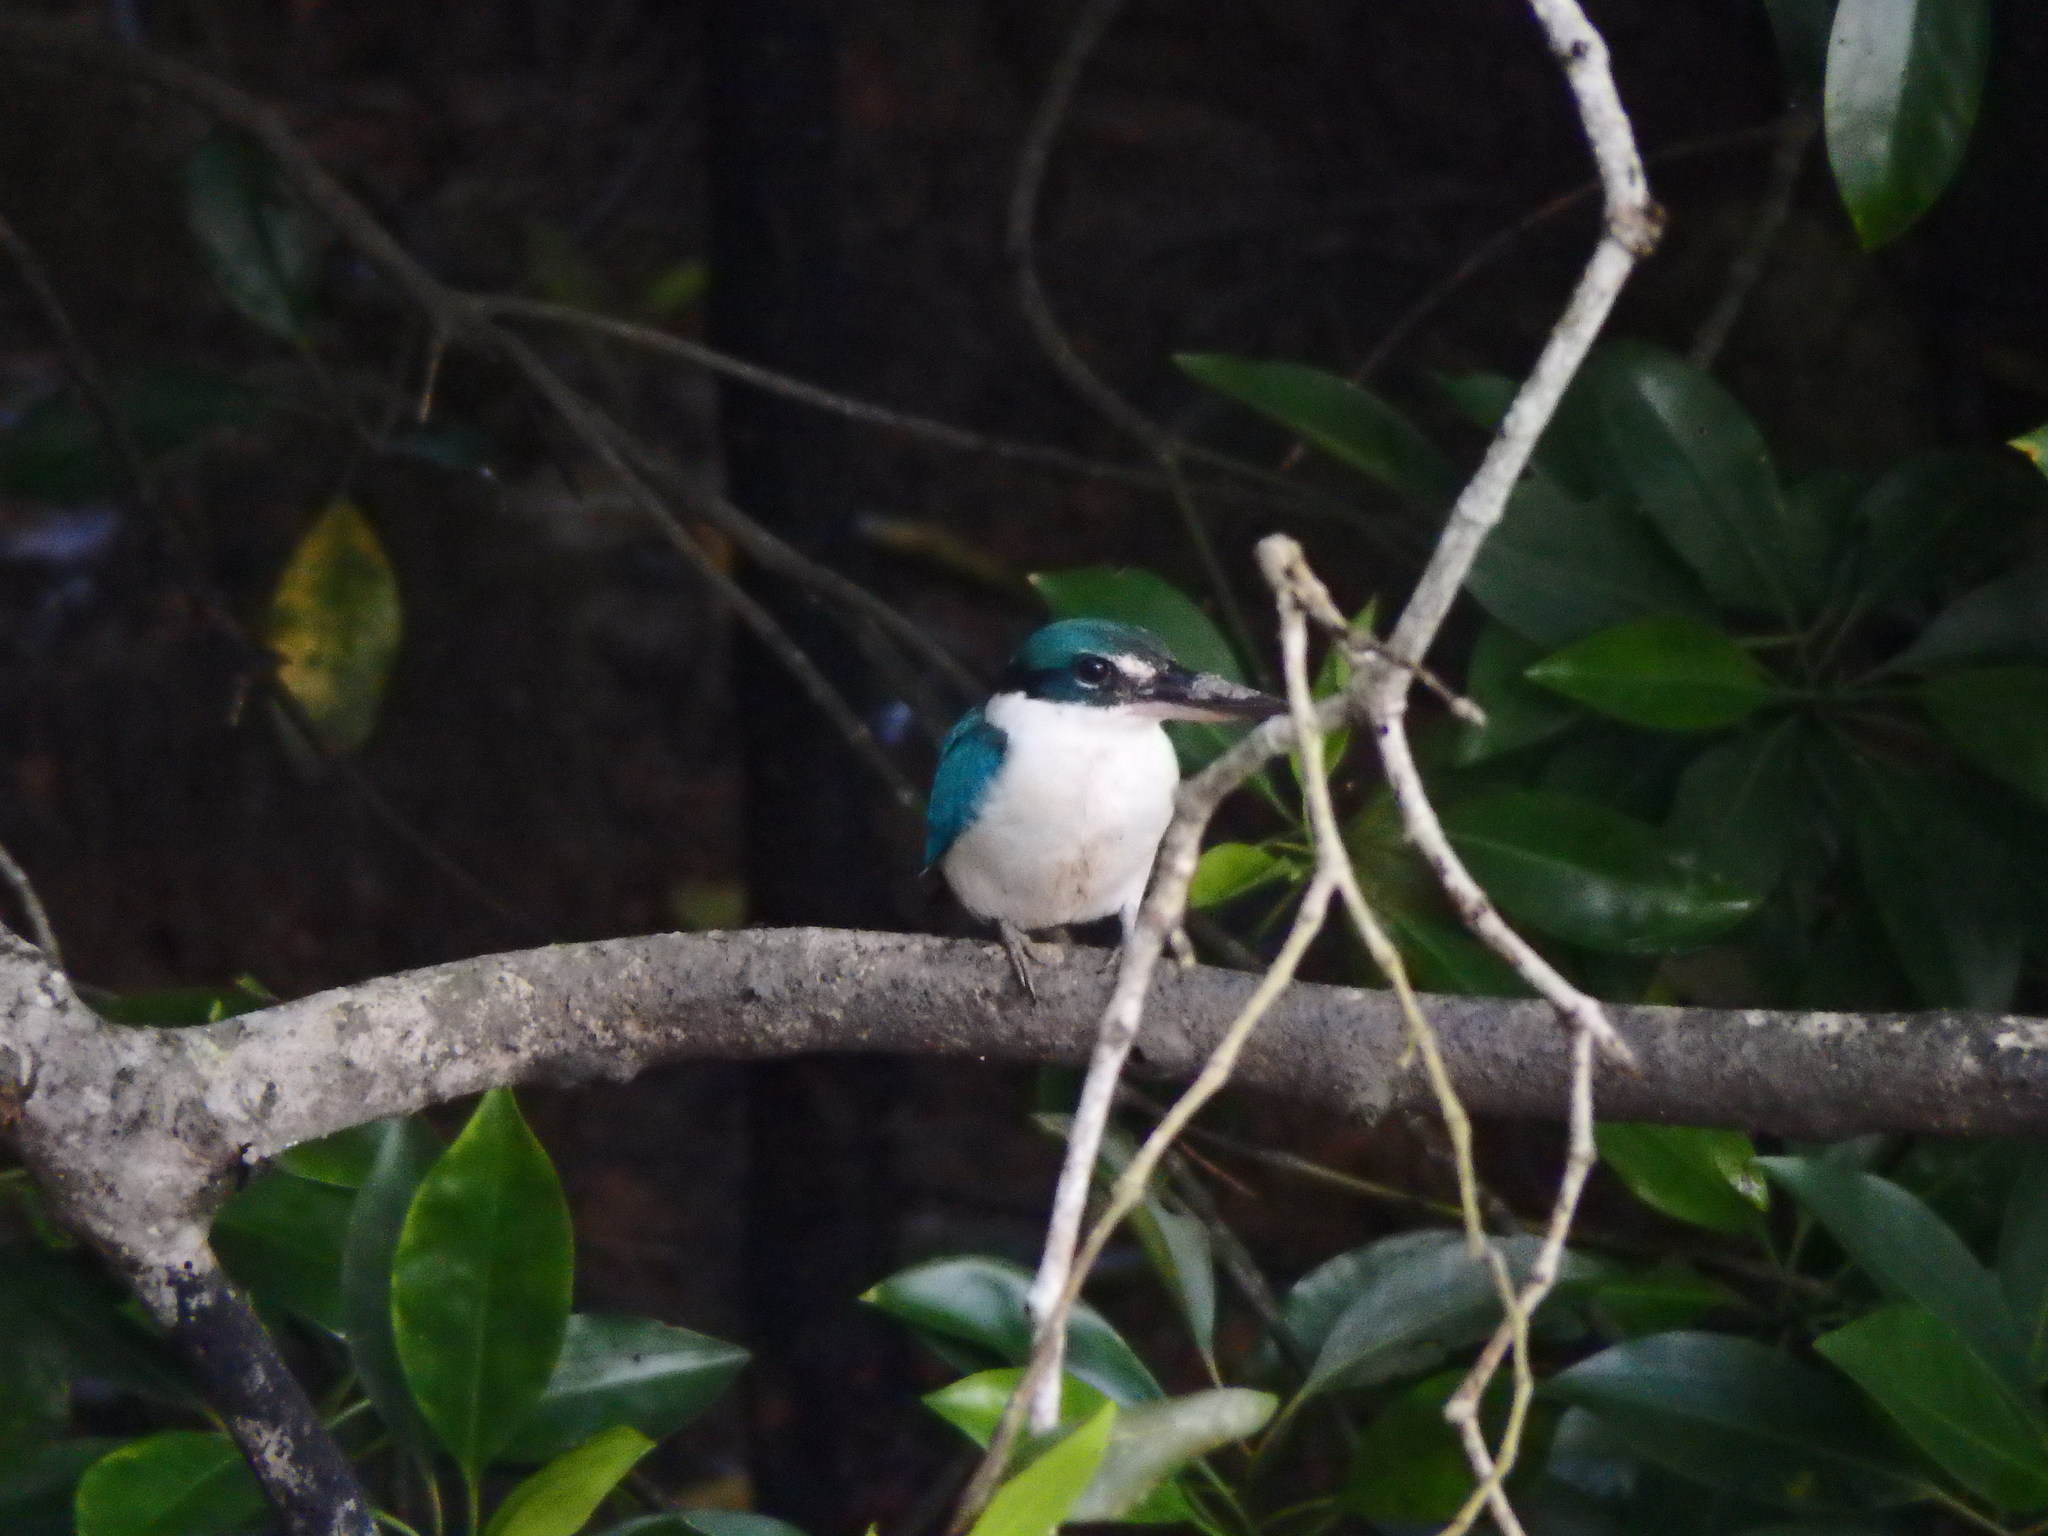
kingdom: Animalia
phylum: Chordata
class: Aves
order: Coraciiformes
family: Alcedinidae
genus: Todiramphus
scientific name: Todiramphus chloris
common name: Collared kingfisher
